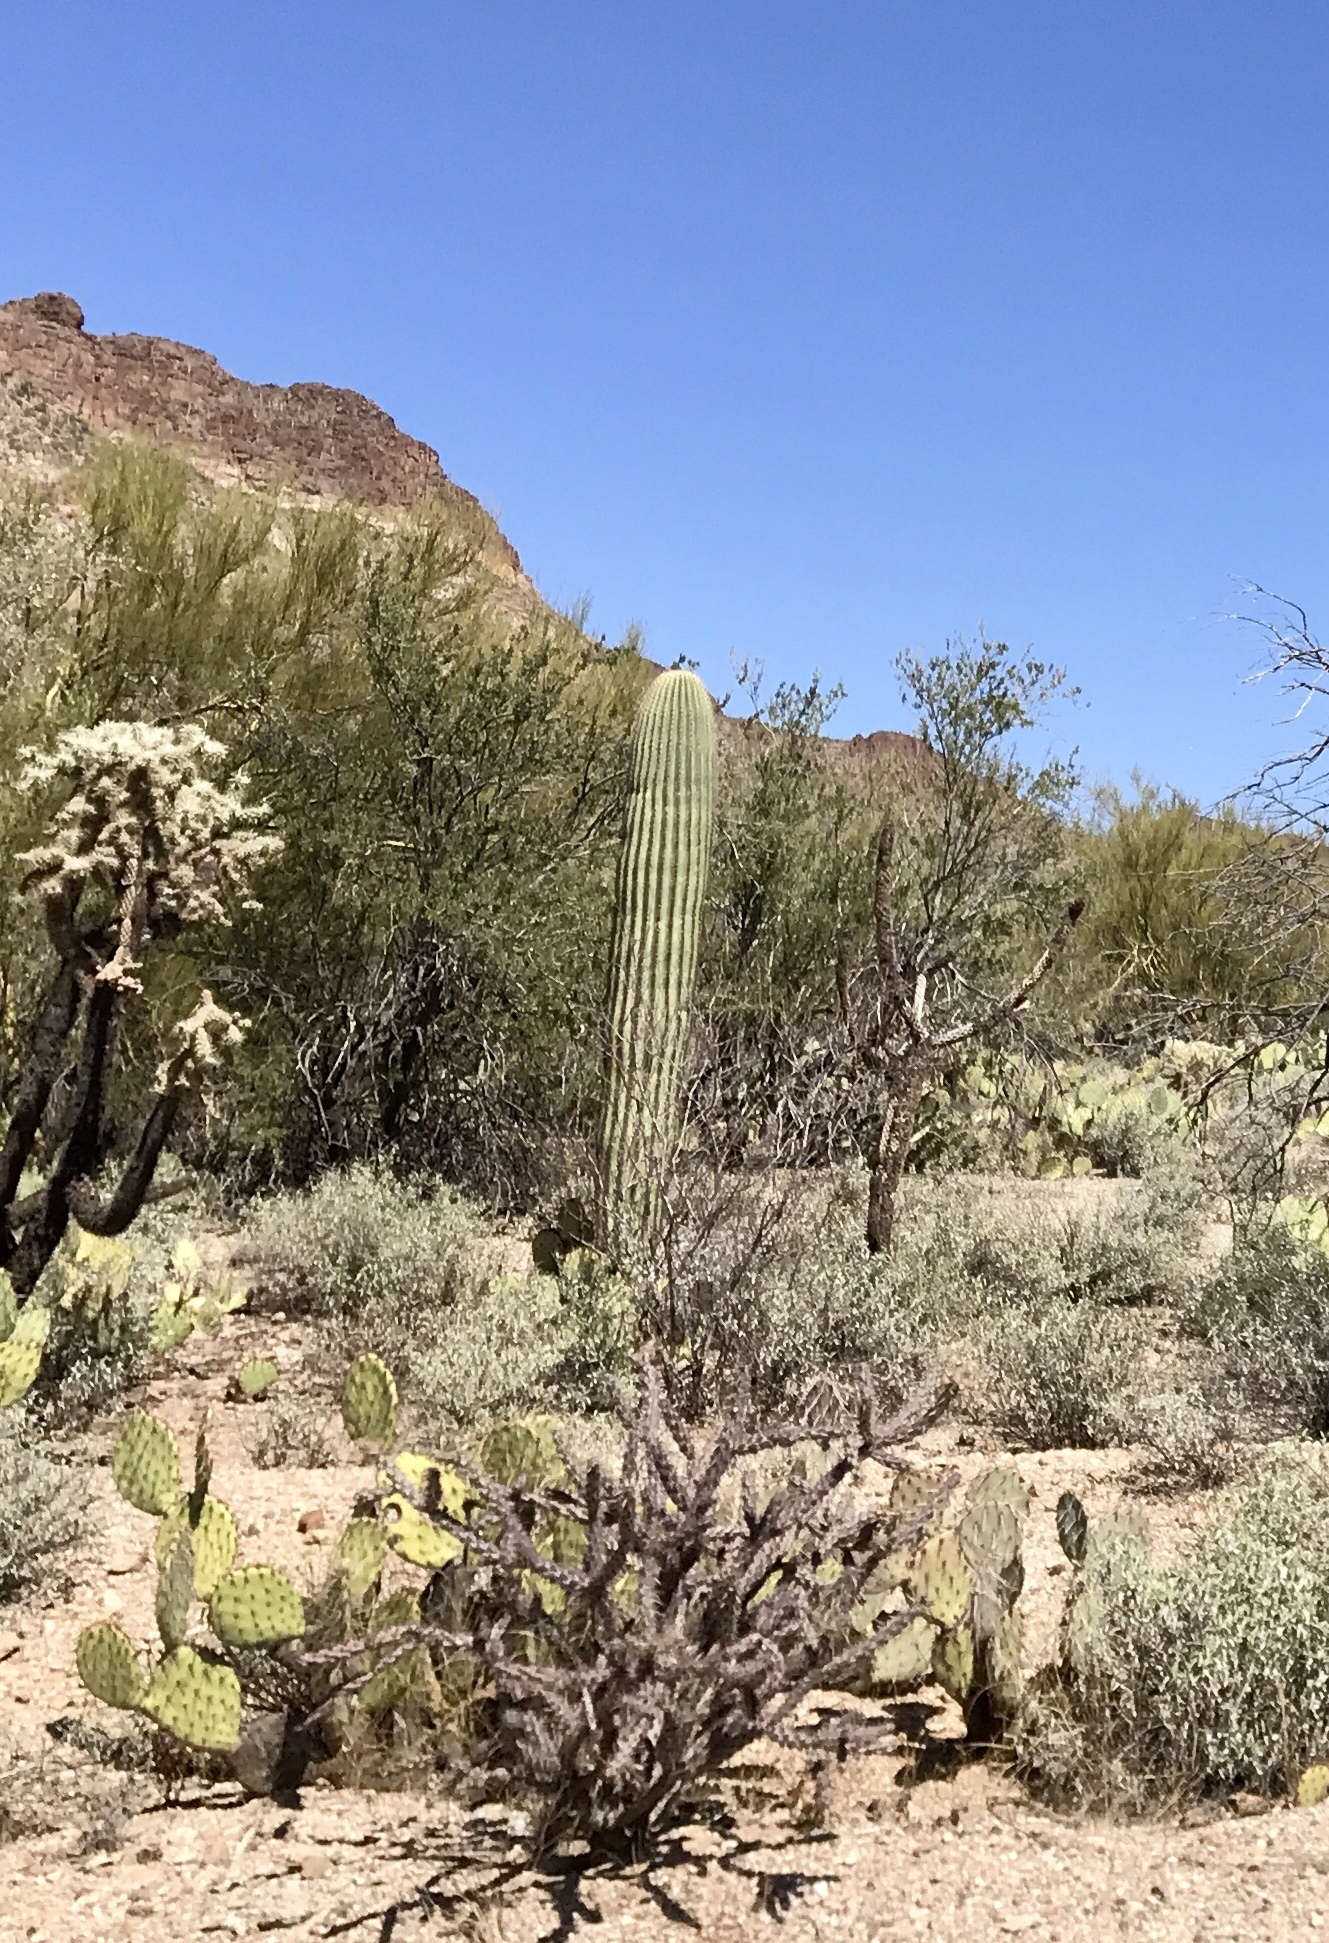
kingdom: Plantae
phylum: Tracheophyta
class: Magnoliopsida
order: Caryophyllales
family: Cactaceae
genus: Carnegiea
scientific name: Carnegiea gigantea
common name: Saguaro
